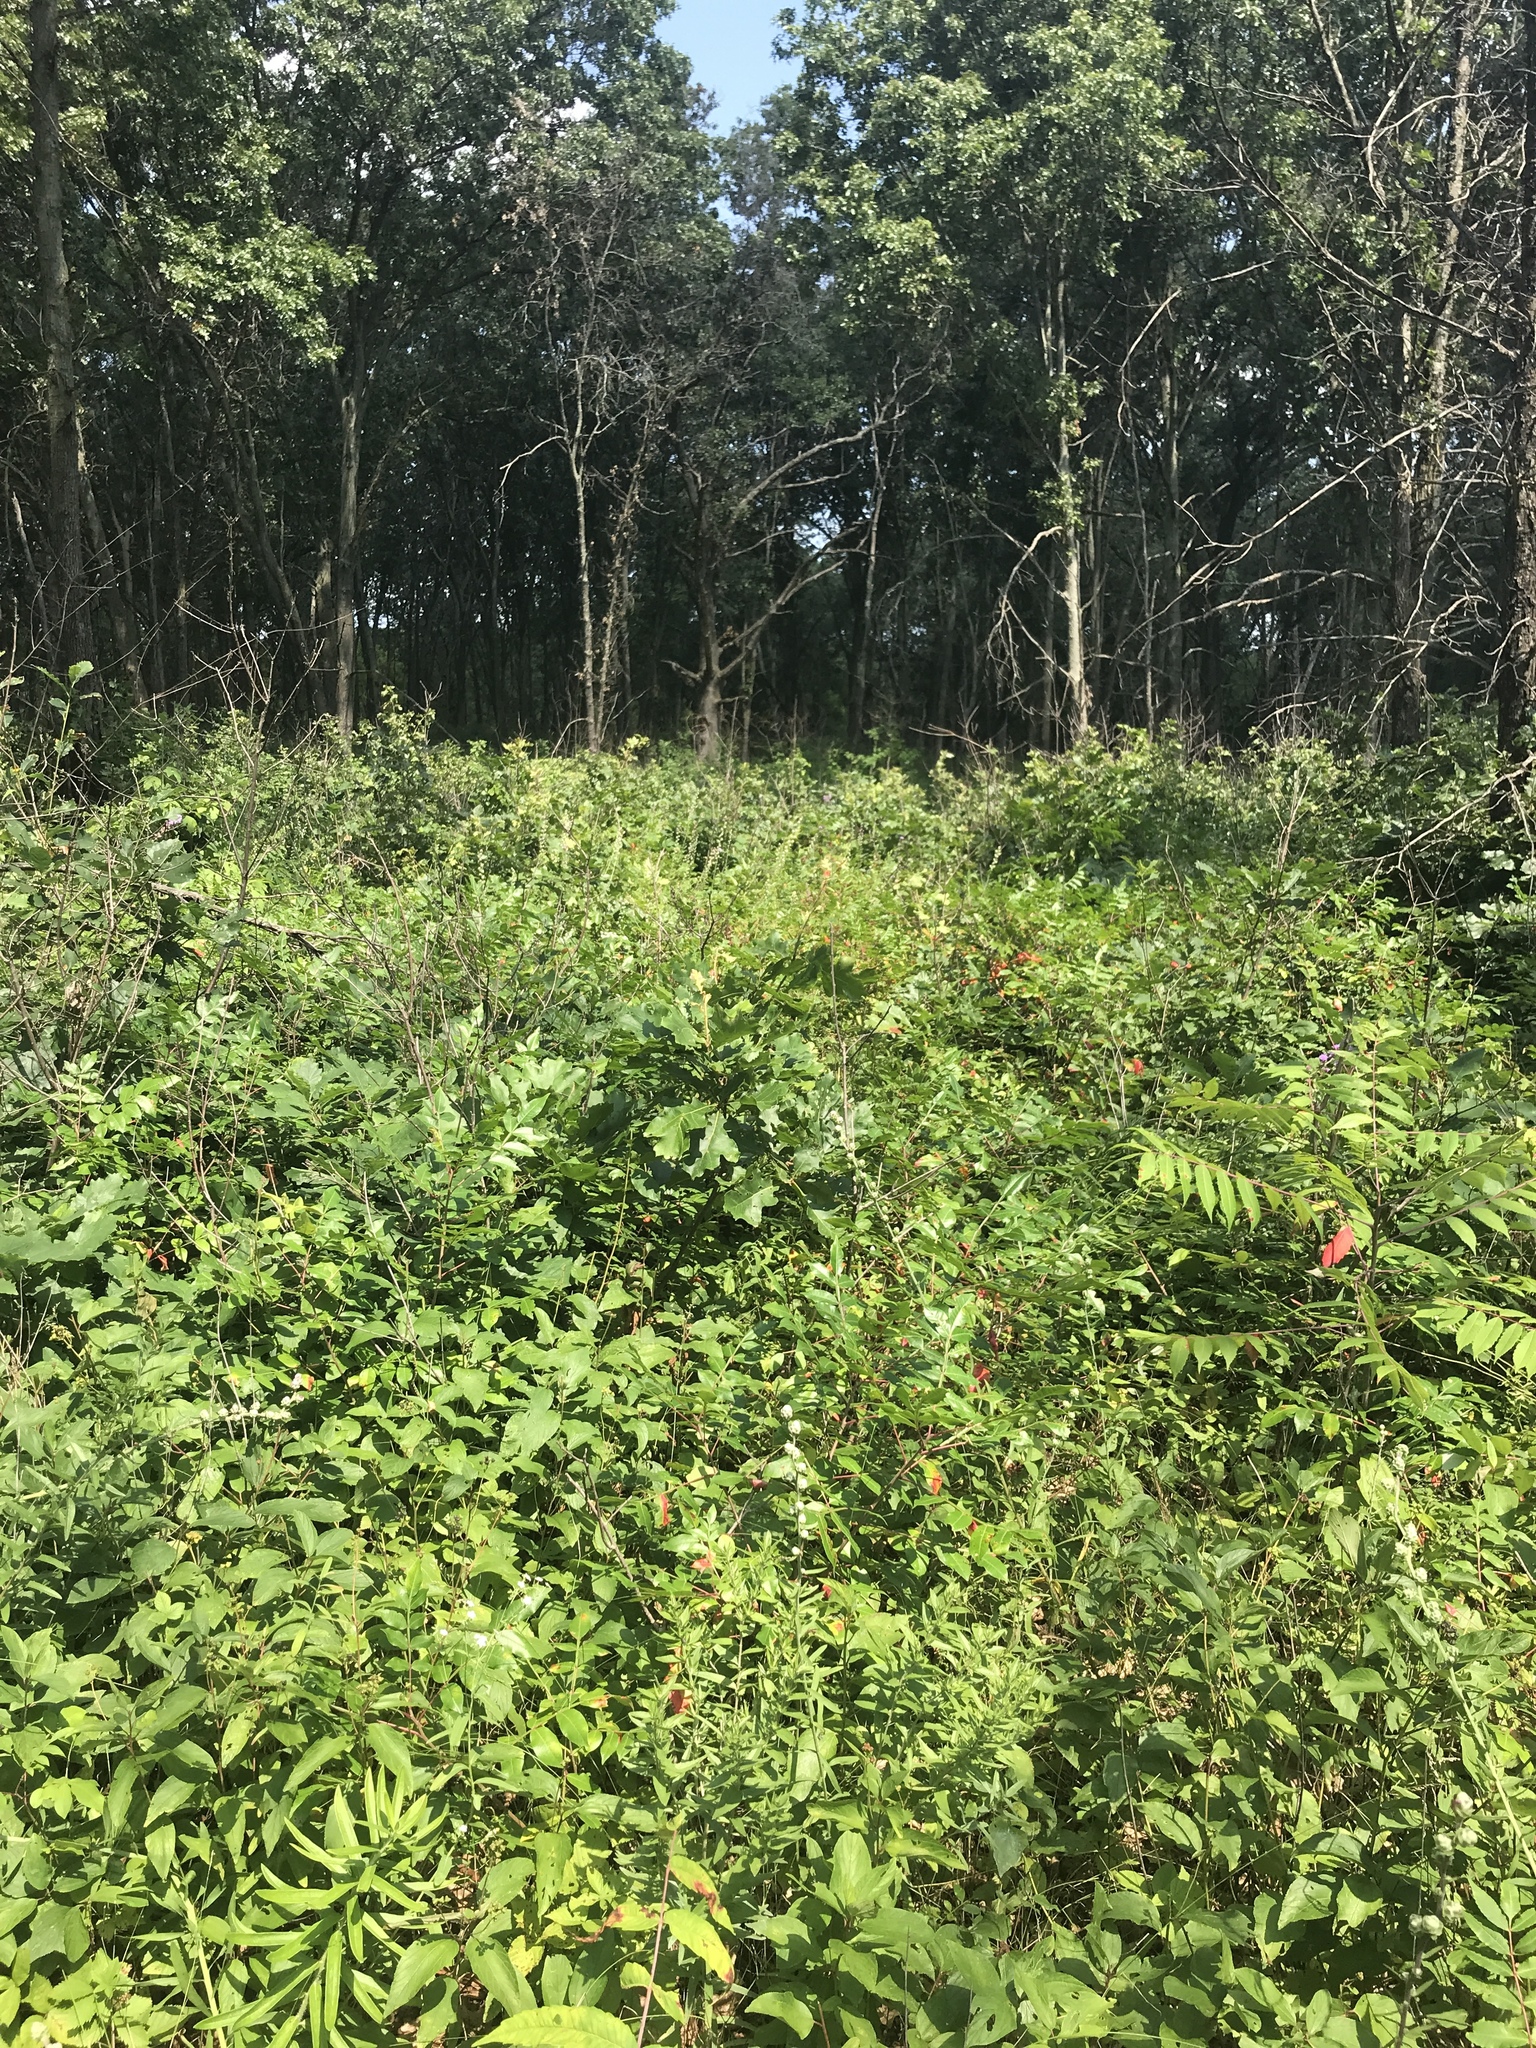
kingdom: Plantae
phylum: Tracheophyta
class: Magnoliopsida
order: Asterales
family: Asteraceae
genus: Liatris
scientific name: Liatris aspera
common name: Lacerate blazing-star
